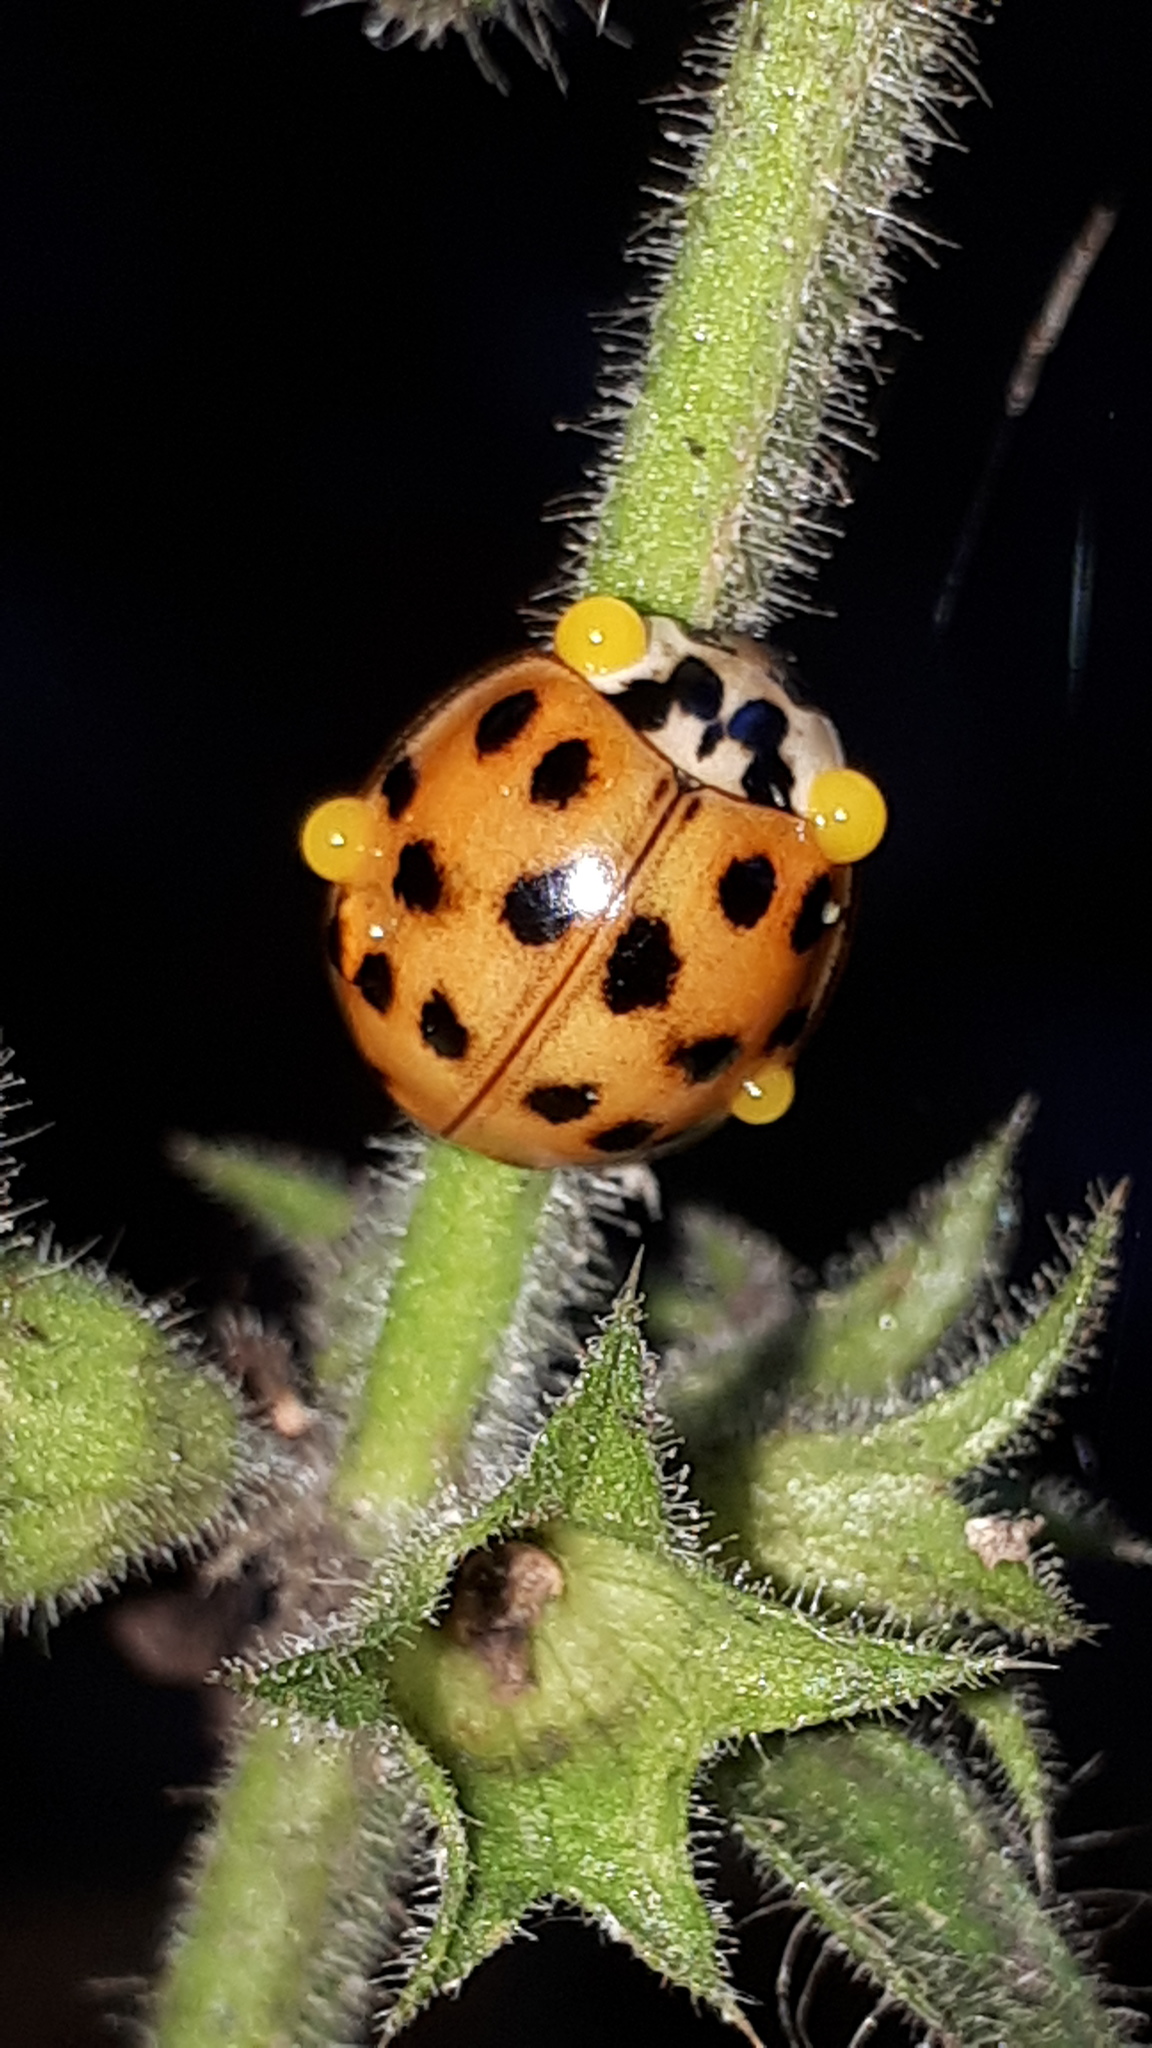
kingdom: Animalia
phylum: Arthropoda
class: Insecta
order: Coleoptera
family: Coccinellidae
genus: Harmonia
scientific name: Harmonia axyridis
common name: Harlequin ladybird
